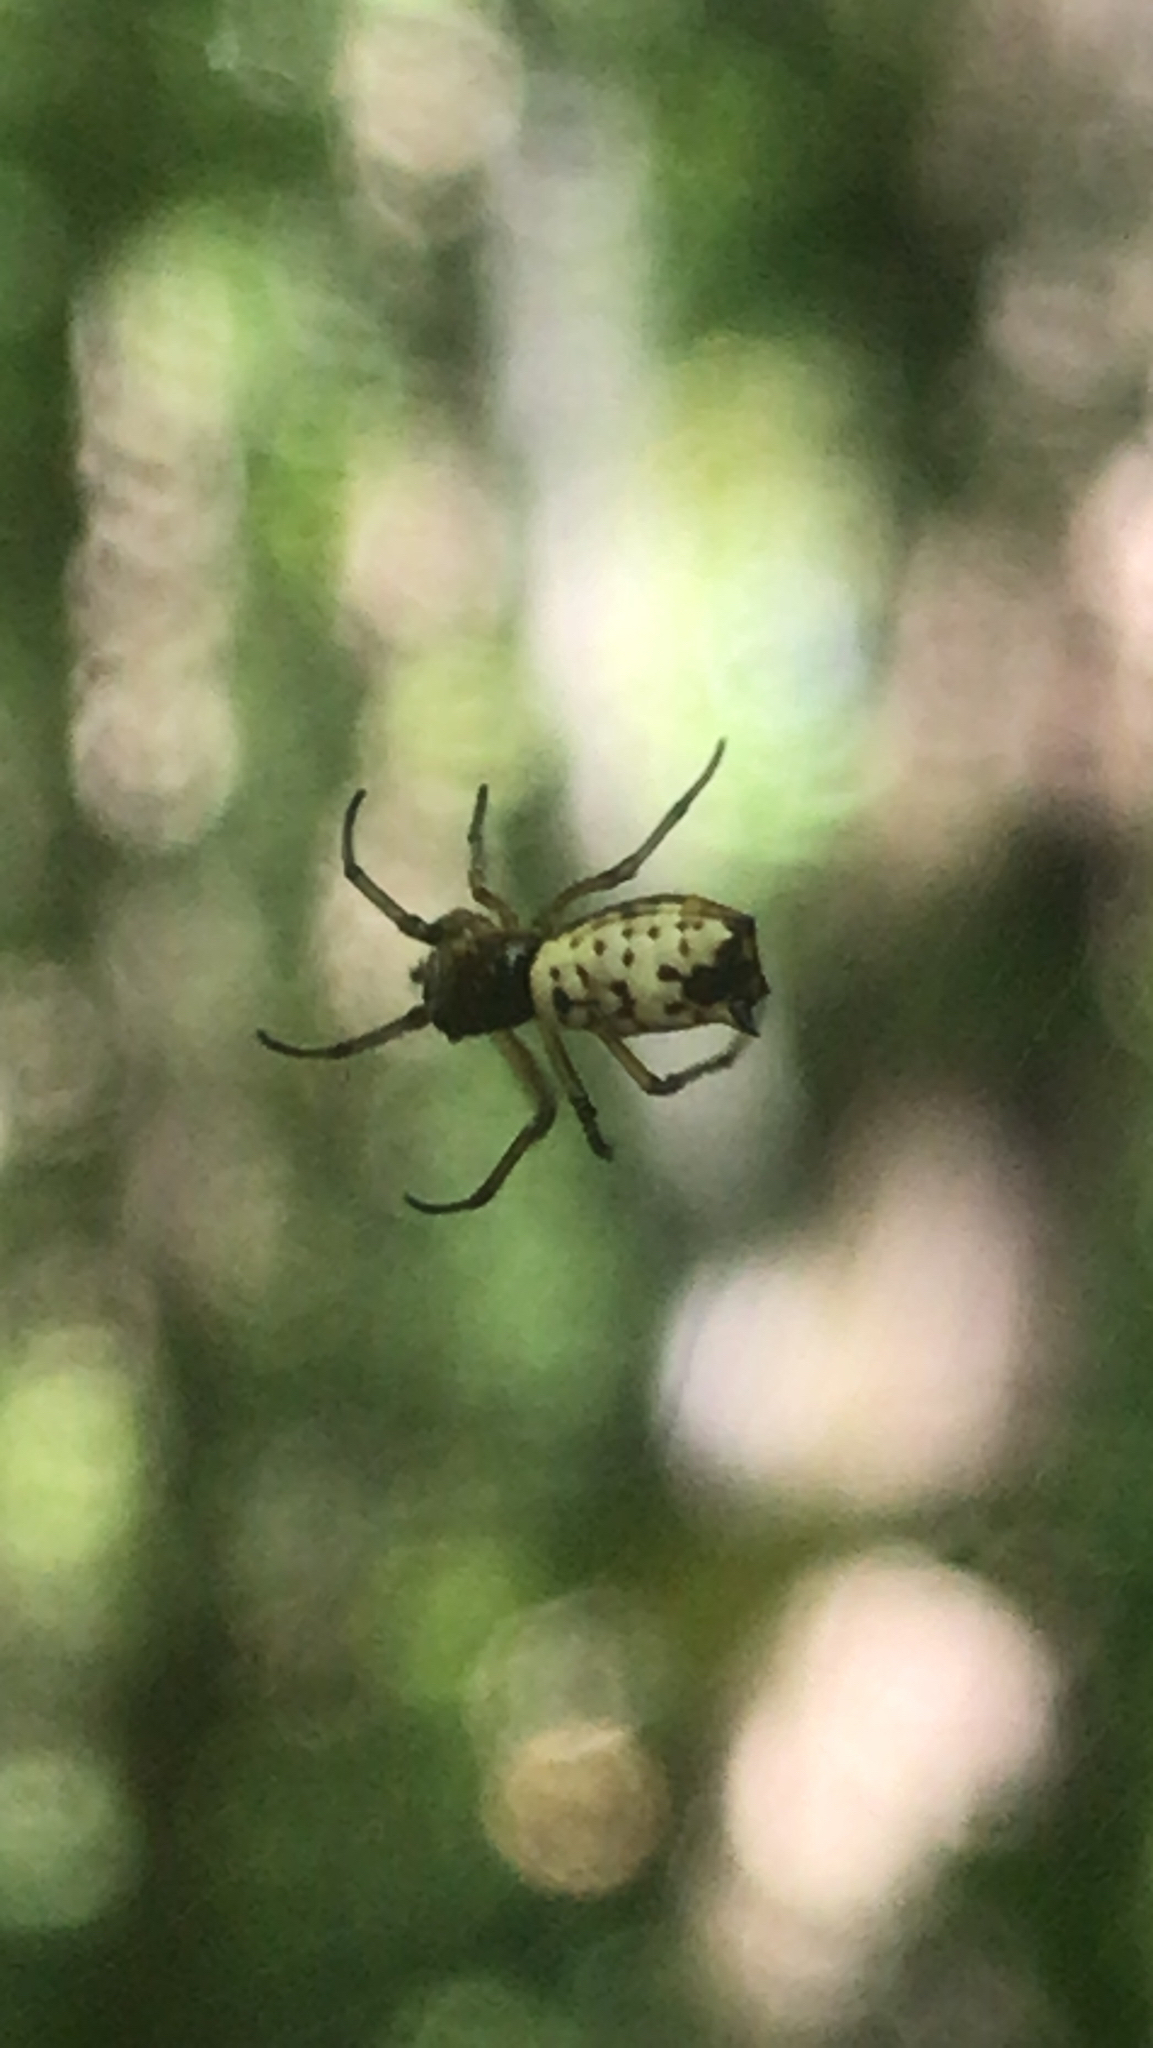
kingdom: Animalia
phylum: Arthropoda
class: Arachnida
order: Araneae
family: Araneidae
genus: Micrathena
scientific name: Micrathena mitrata
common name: Orb weavers
